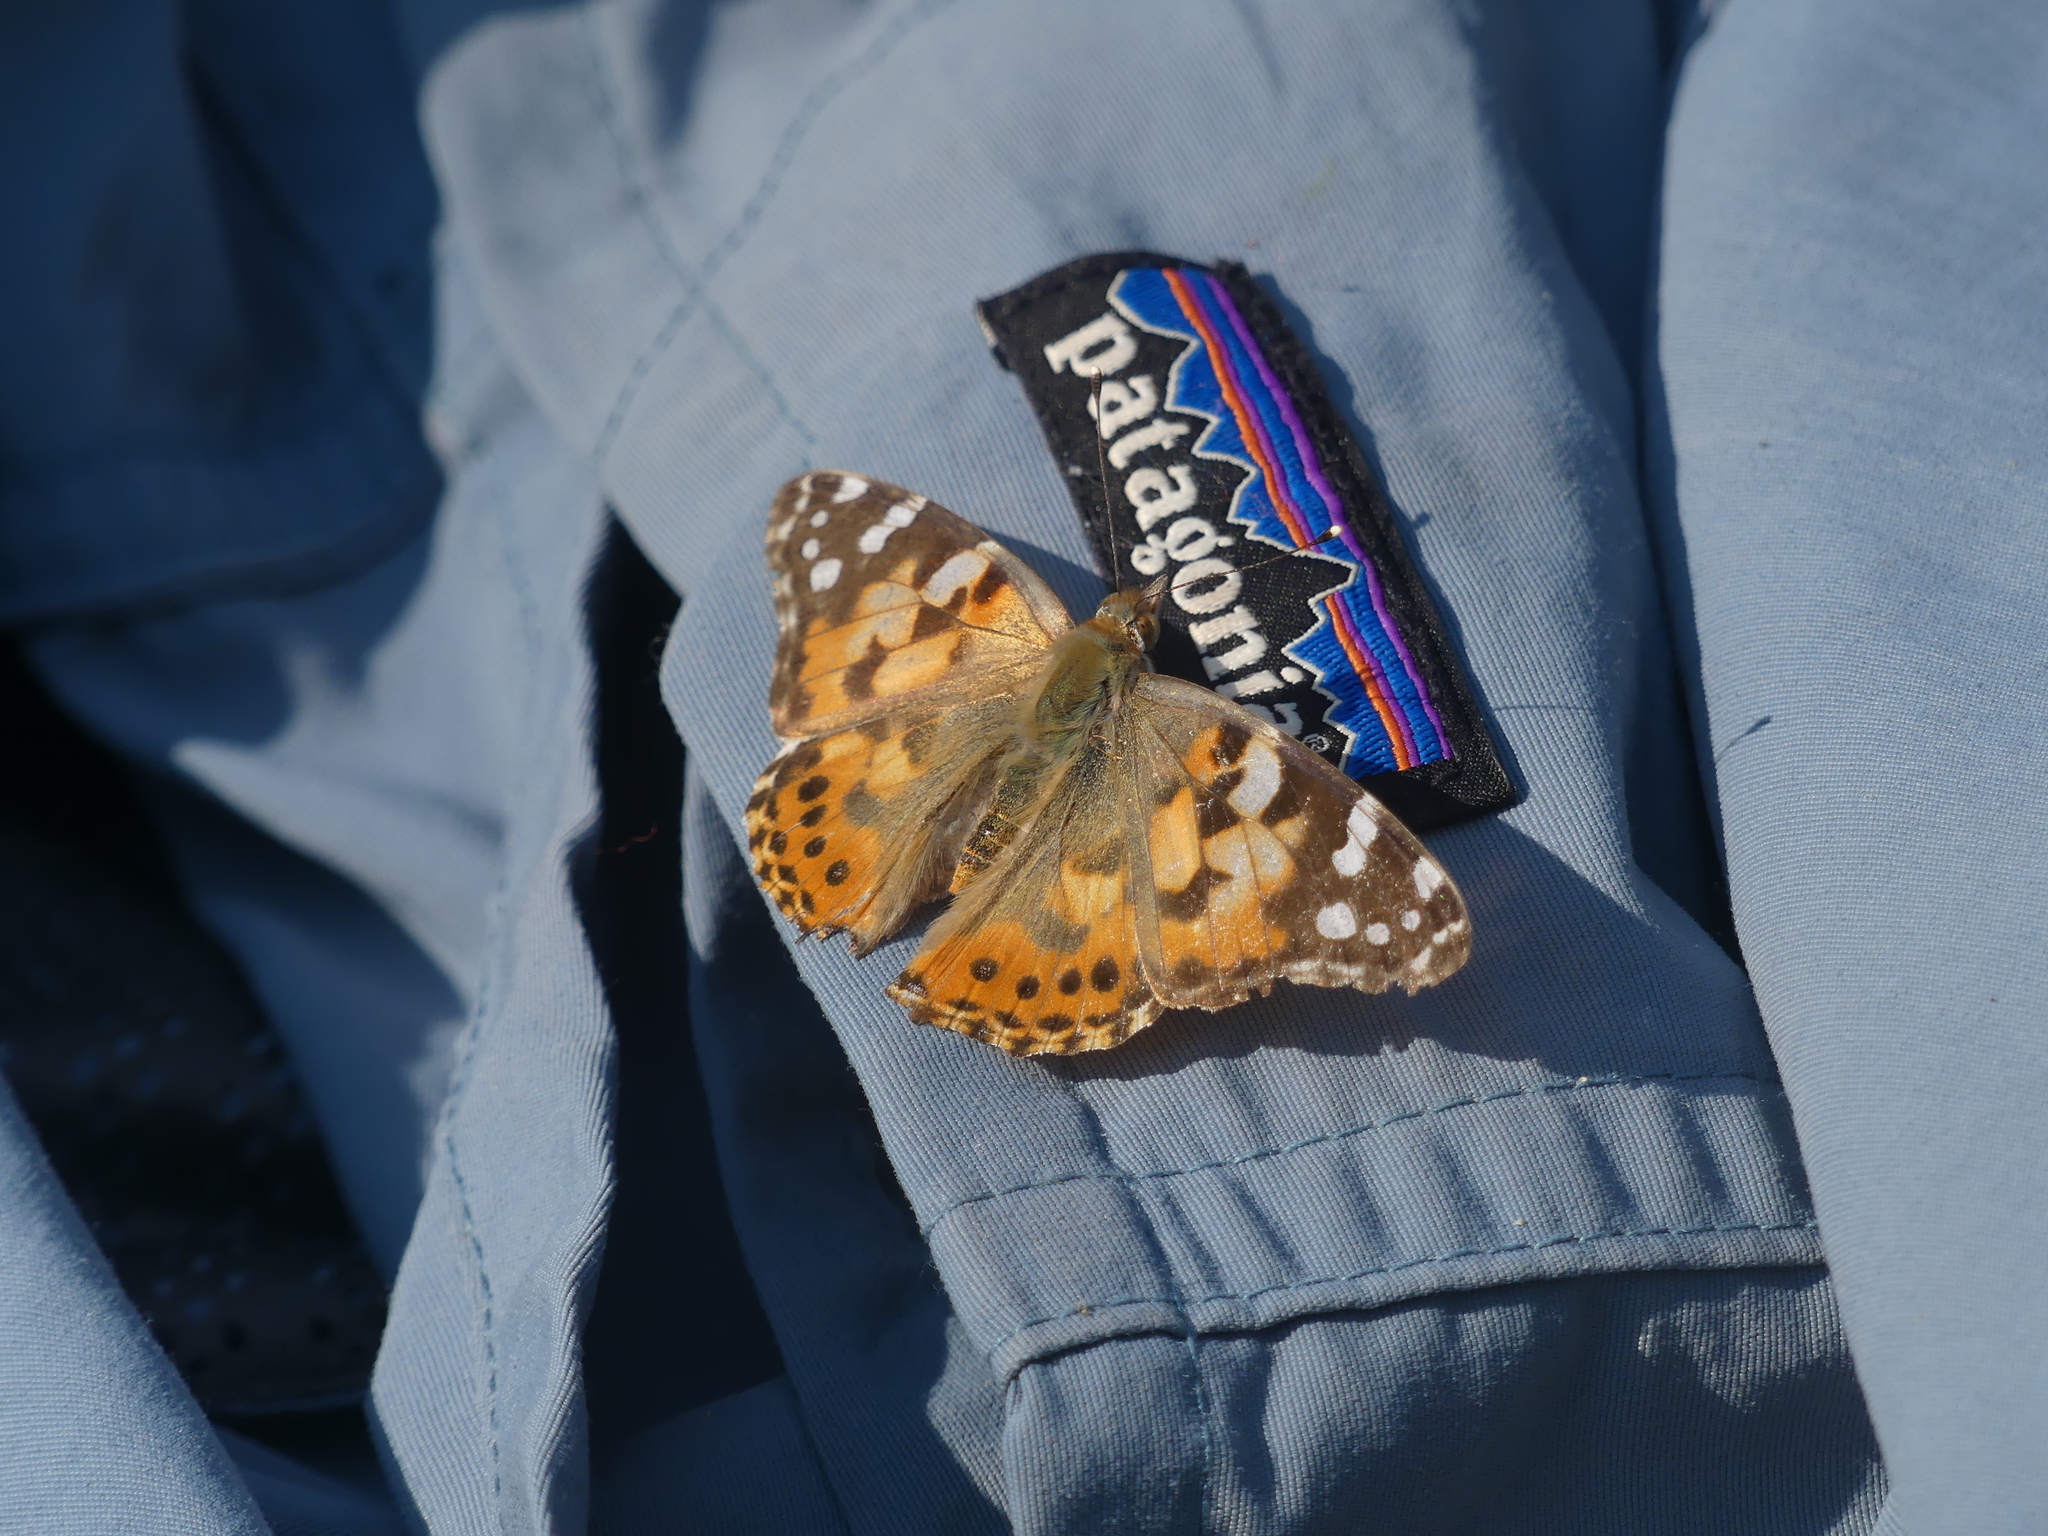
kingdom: Animalia
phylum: Arthropoda
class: Insecta
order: Lepidoptera
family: Nymphalidae
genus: Vanessa
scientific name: Vanessa cardui
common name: Painted lady
